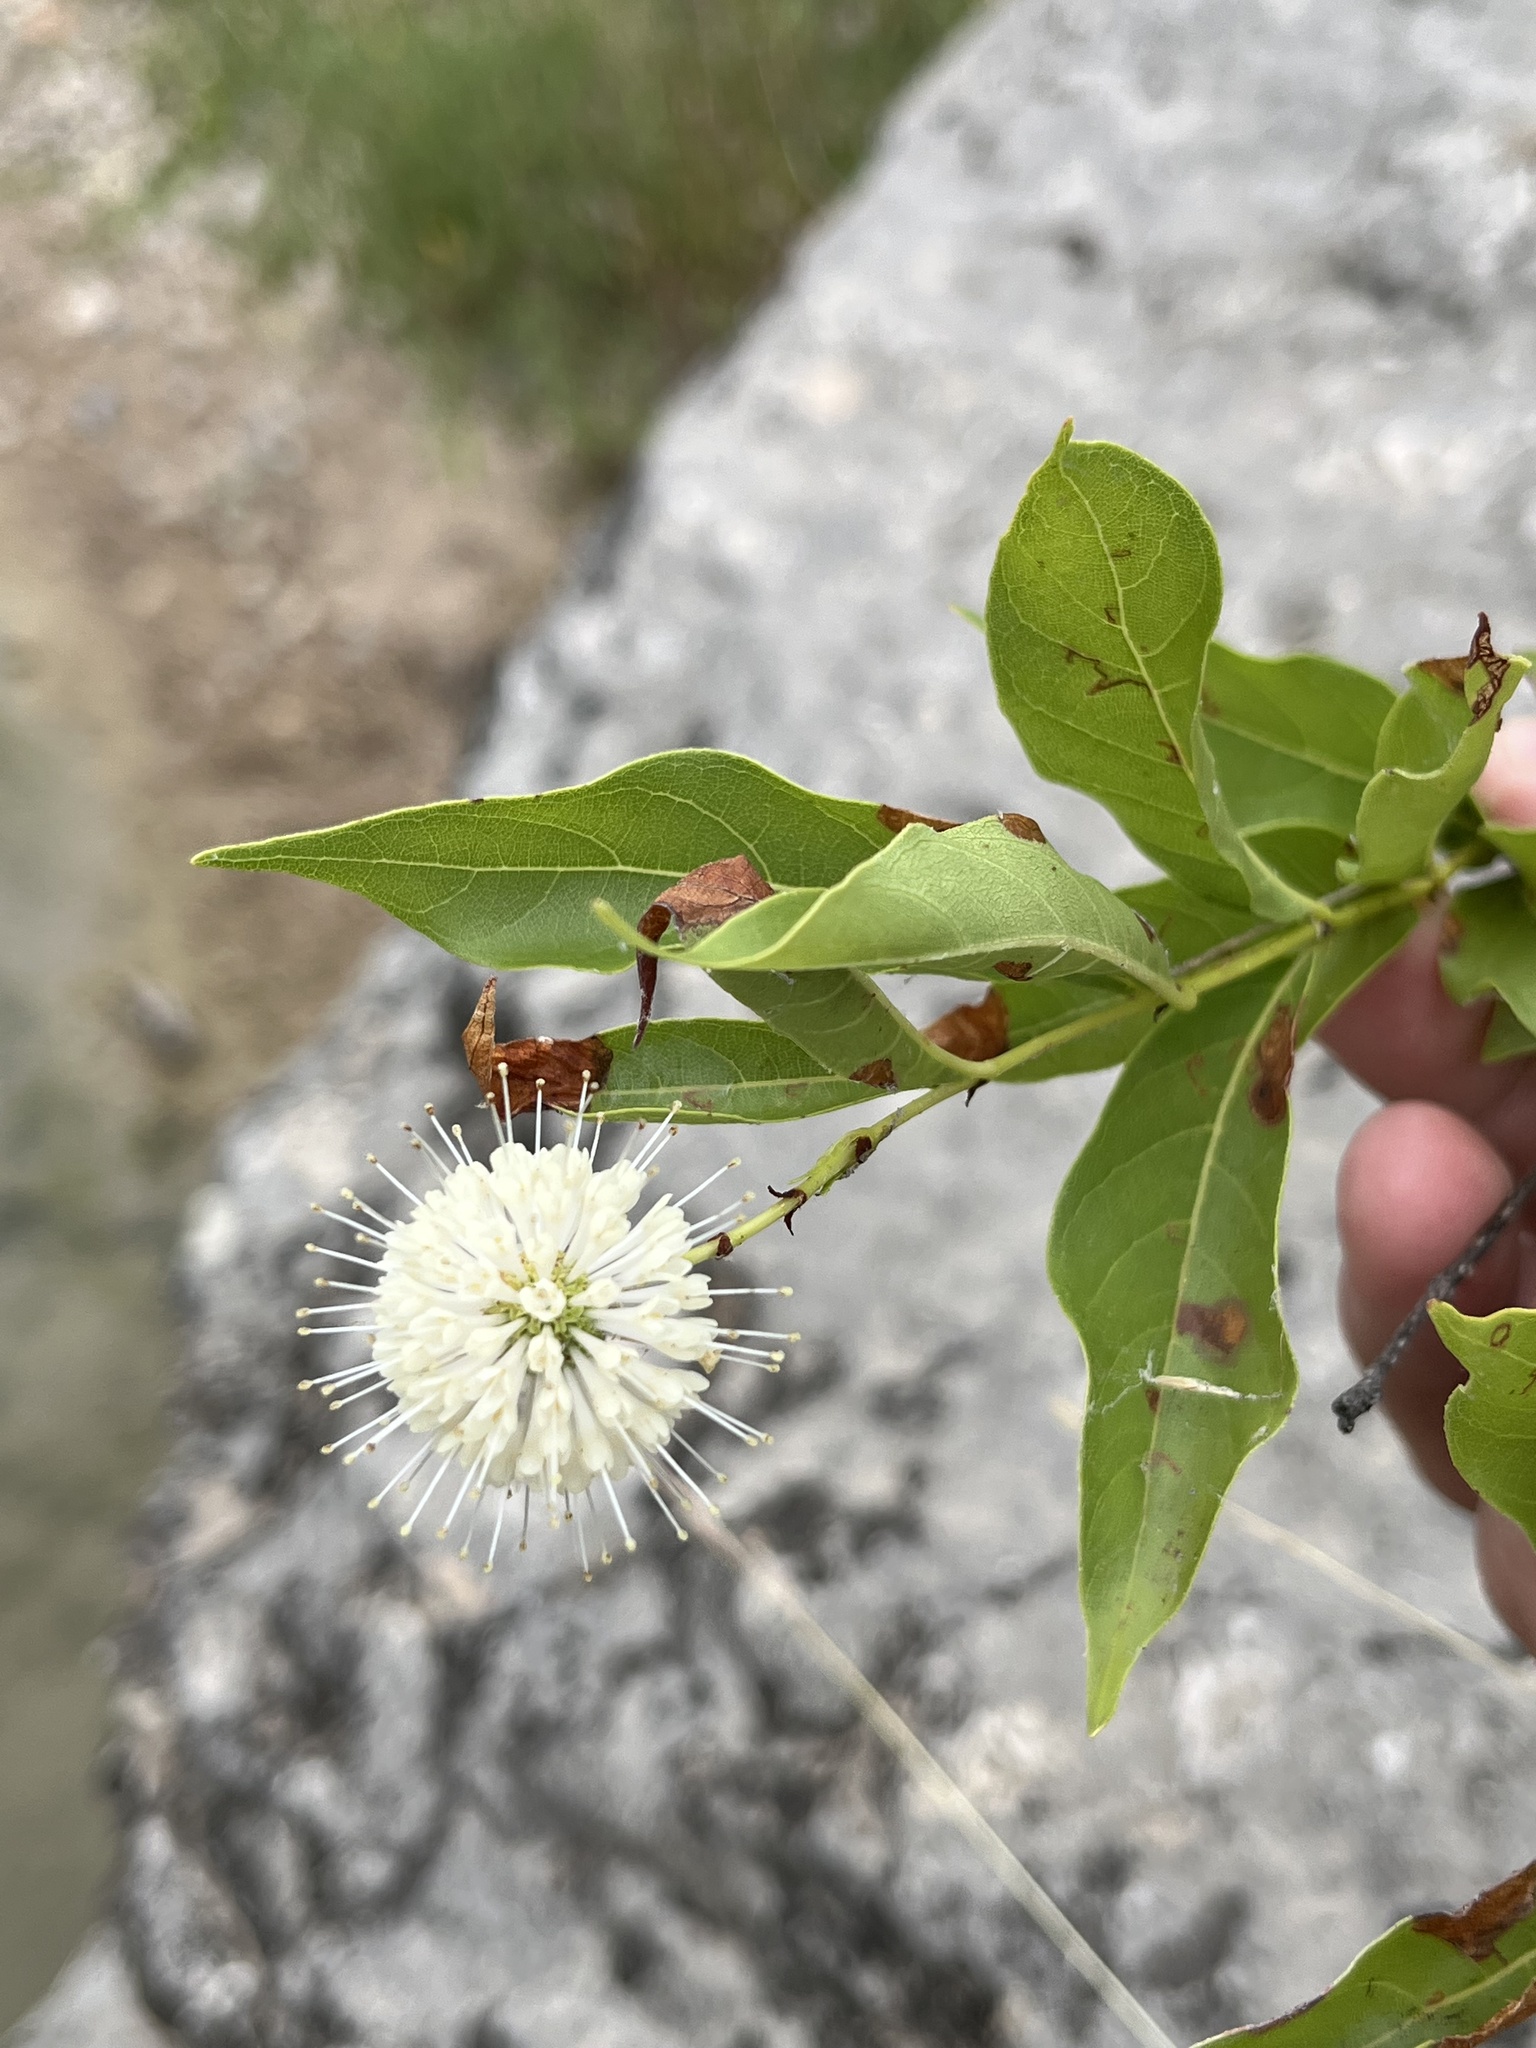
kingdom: Plantae
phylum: Tracheophyta
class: Magnoliopsida
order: Gentianales
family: Rubiaceae
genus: Cephalanthus
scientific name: Cephalanthus occidentalis
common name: Button-willow
